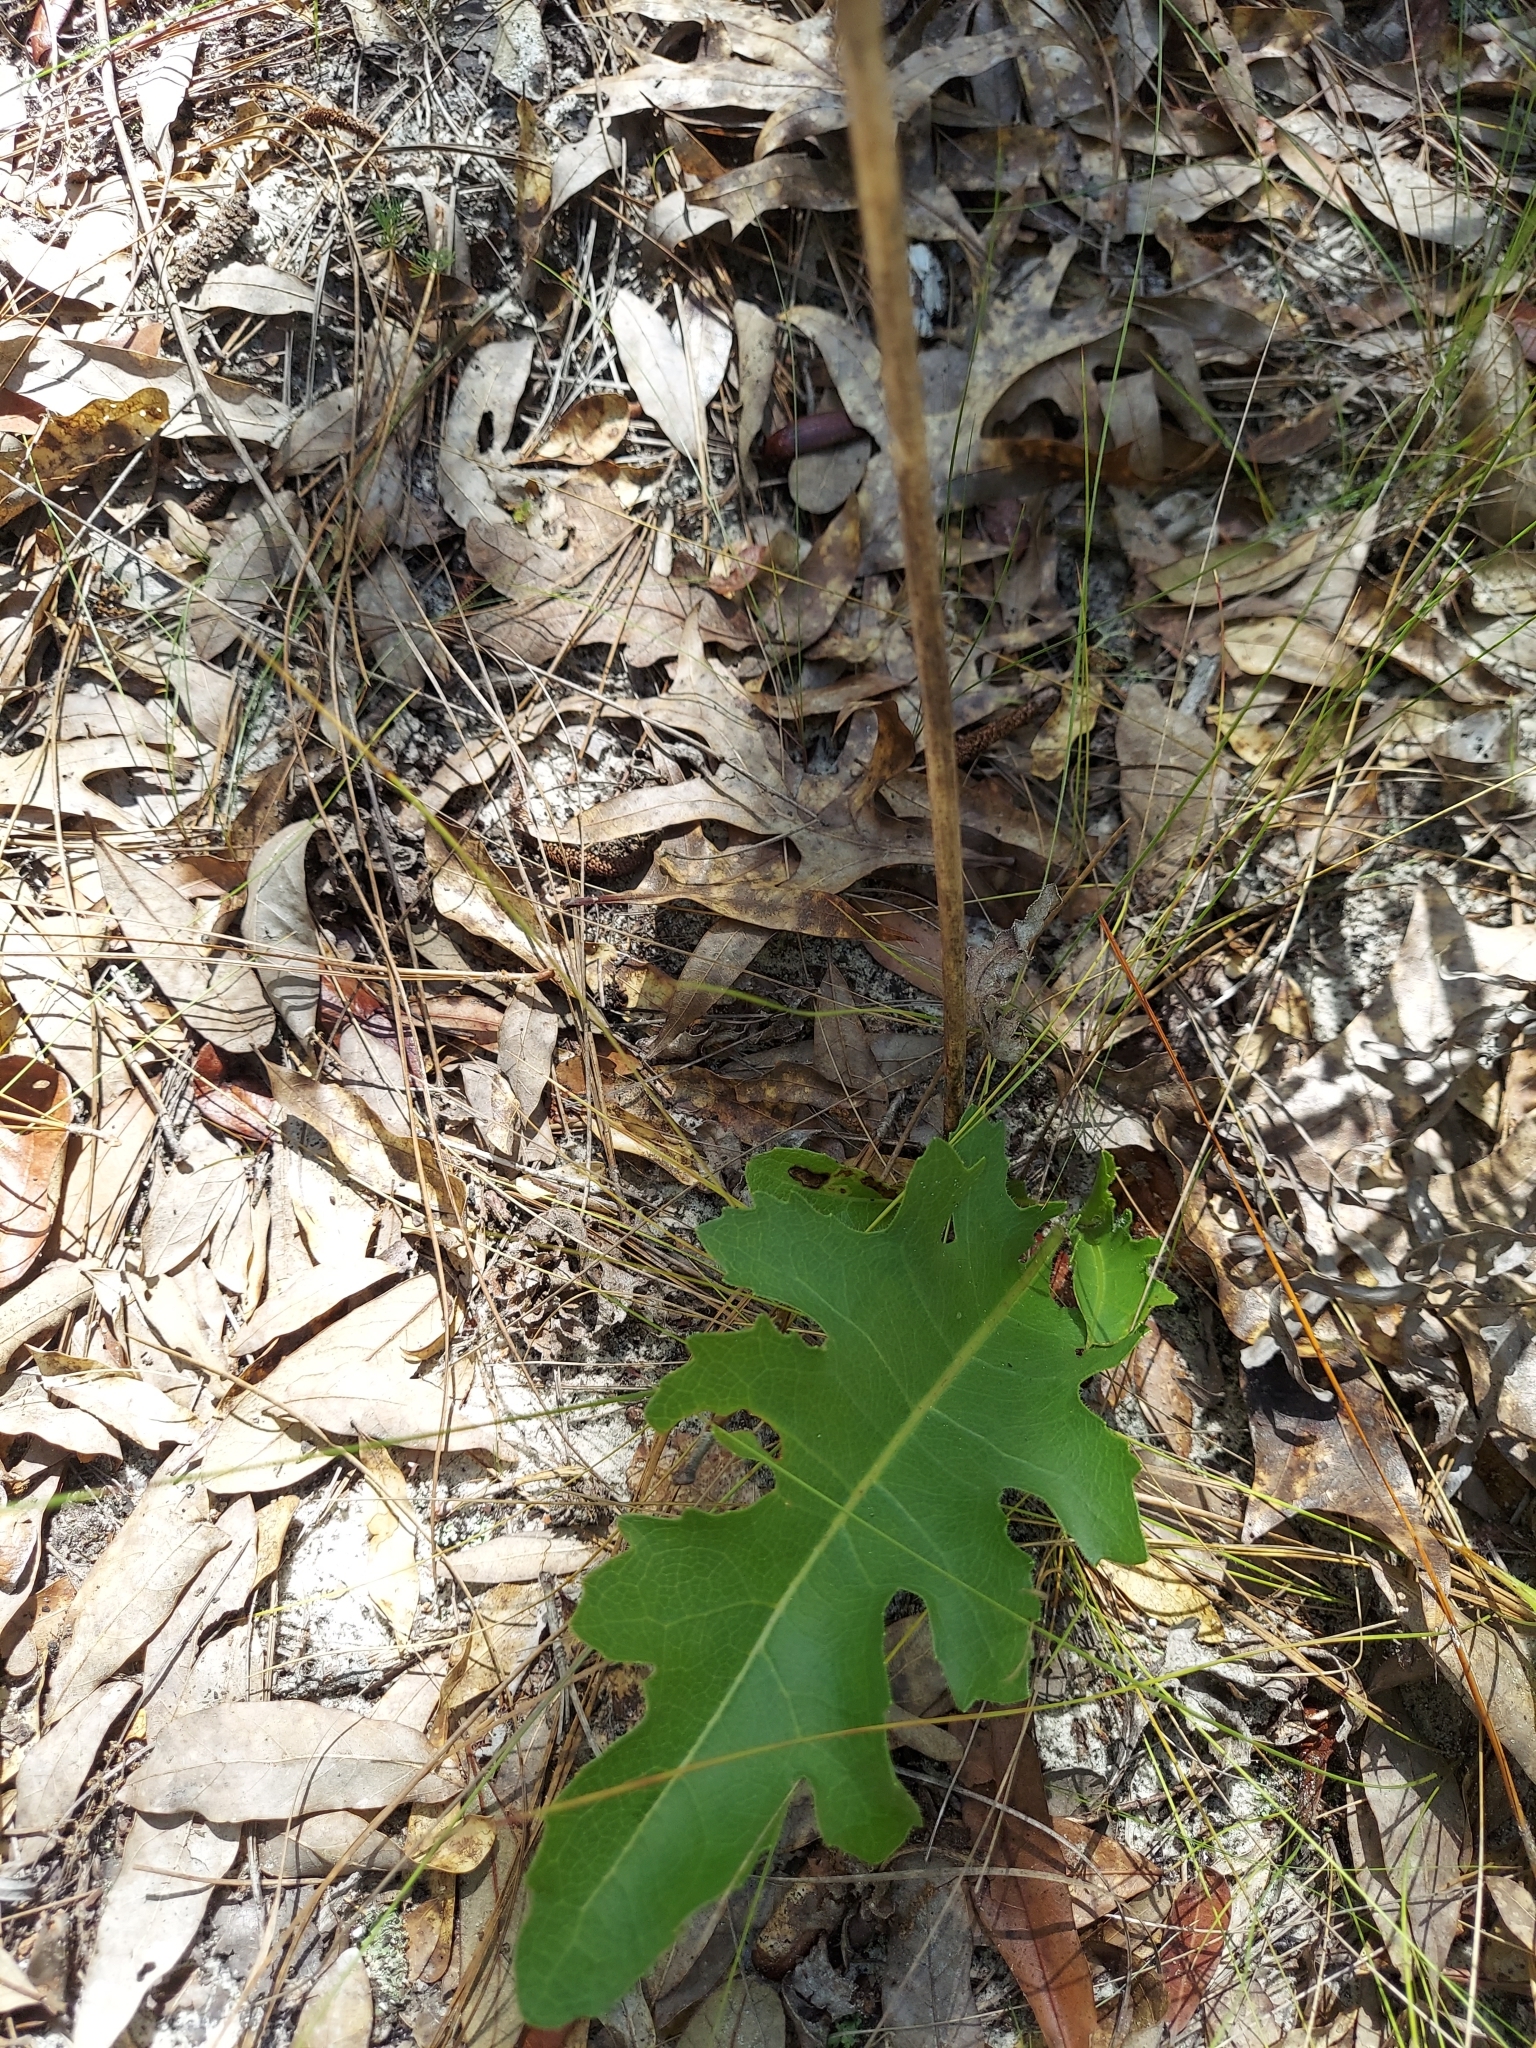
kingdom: Plantae
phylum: Tracheophyta
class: Magnoliopsida
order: Asterales
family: Asteraceae
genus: Silphium
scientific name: Silphium compositum
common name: Lesser basal-leaf rosinweed
